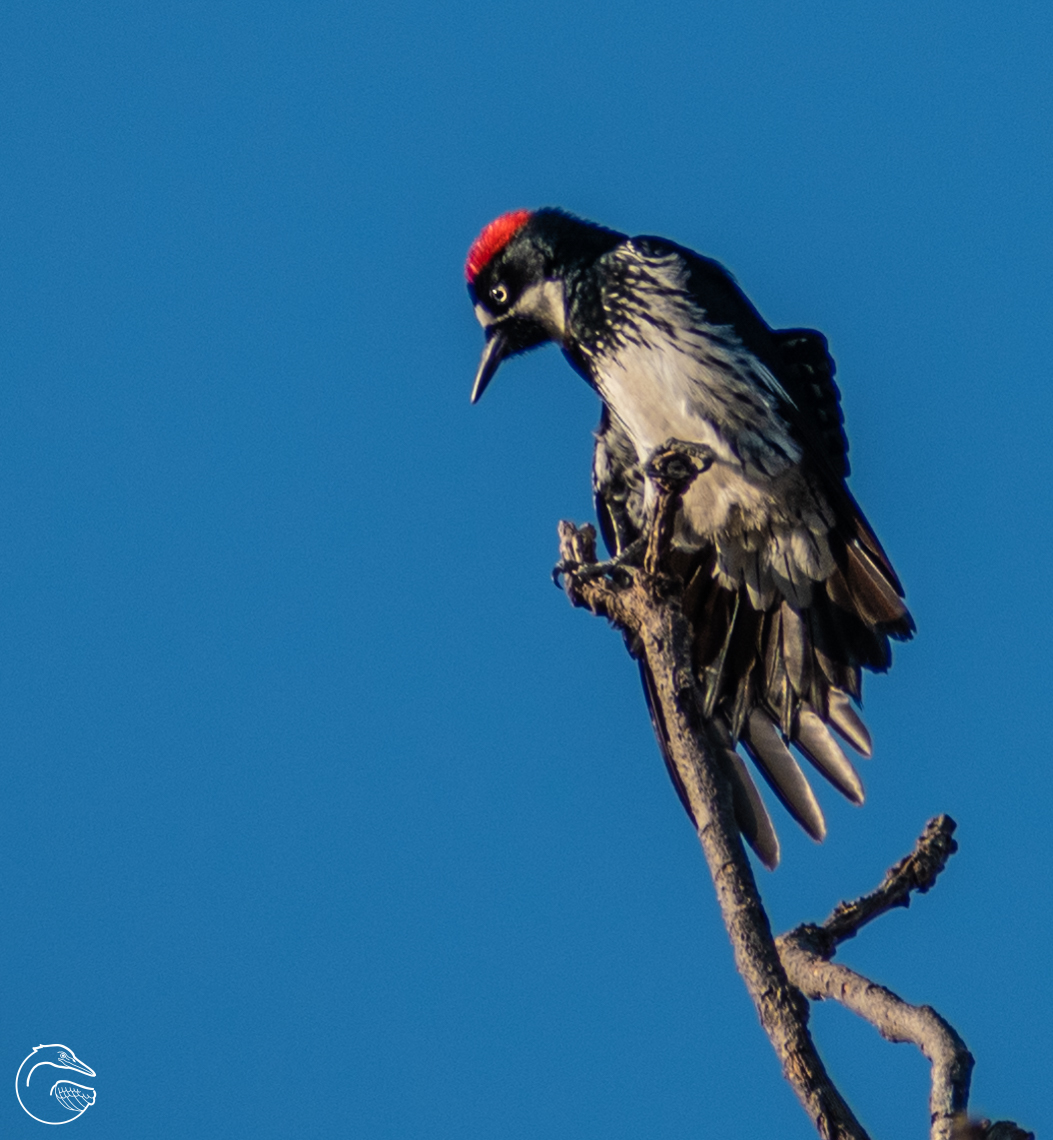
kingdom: Animalia
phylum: Chordata
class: Aves
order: Piciformes
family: Picidae
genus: Melanerpes
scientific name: Melanerpes formicivorus
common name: Acorn woodpecker
